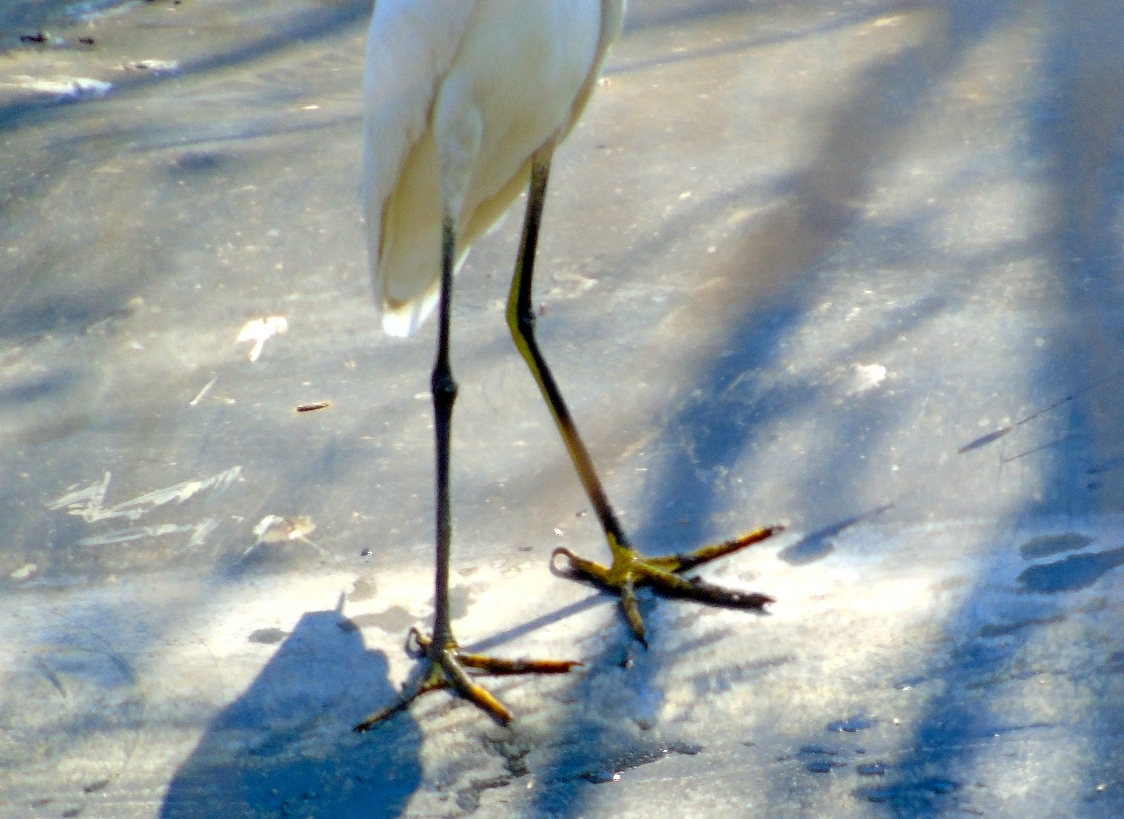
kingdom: Animalia
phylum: Chordata
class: Aves
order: Pelecaniformes
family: Ardeidae
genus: Egretta
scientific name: Egretta thula
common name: Snowy egret
